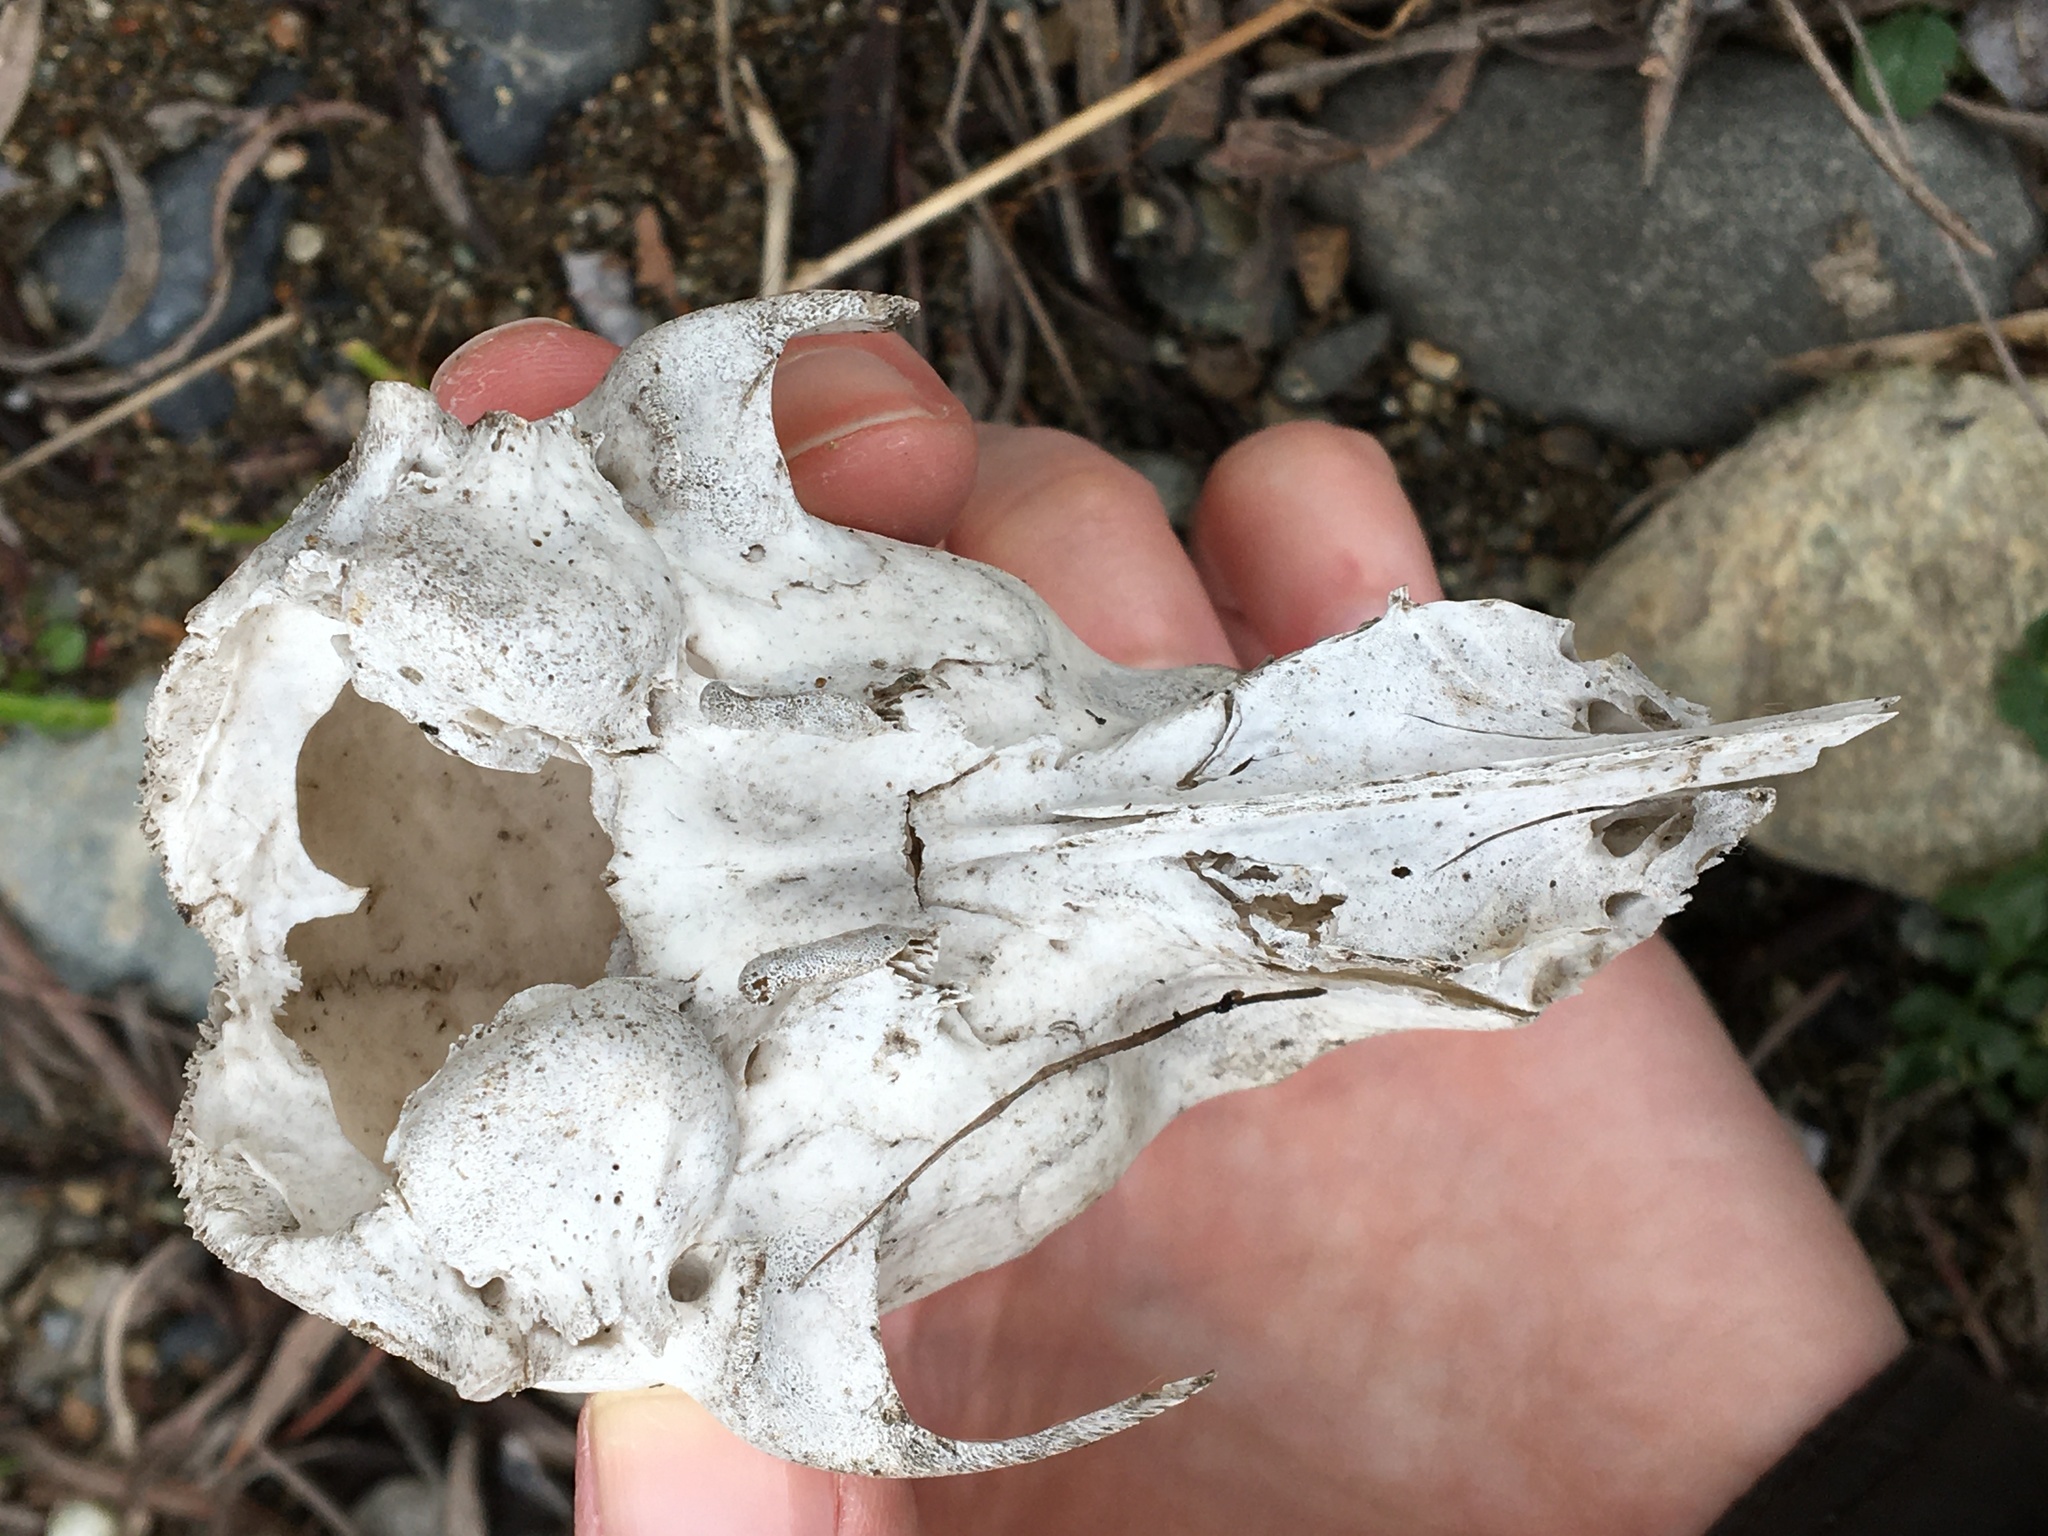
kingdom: Animalia
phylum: Chordata
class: Mammalia
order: Carnivora
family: Procyonidae
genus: Procyon
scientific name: Procyon lotor
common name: Raccoon
